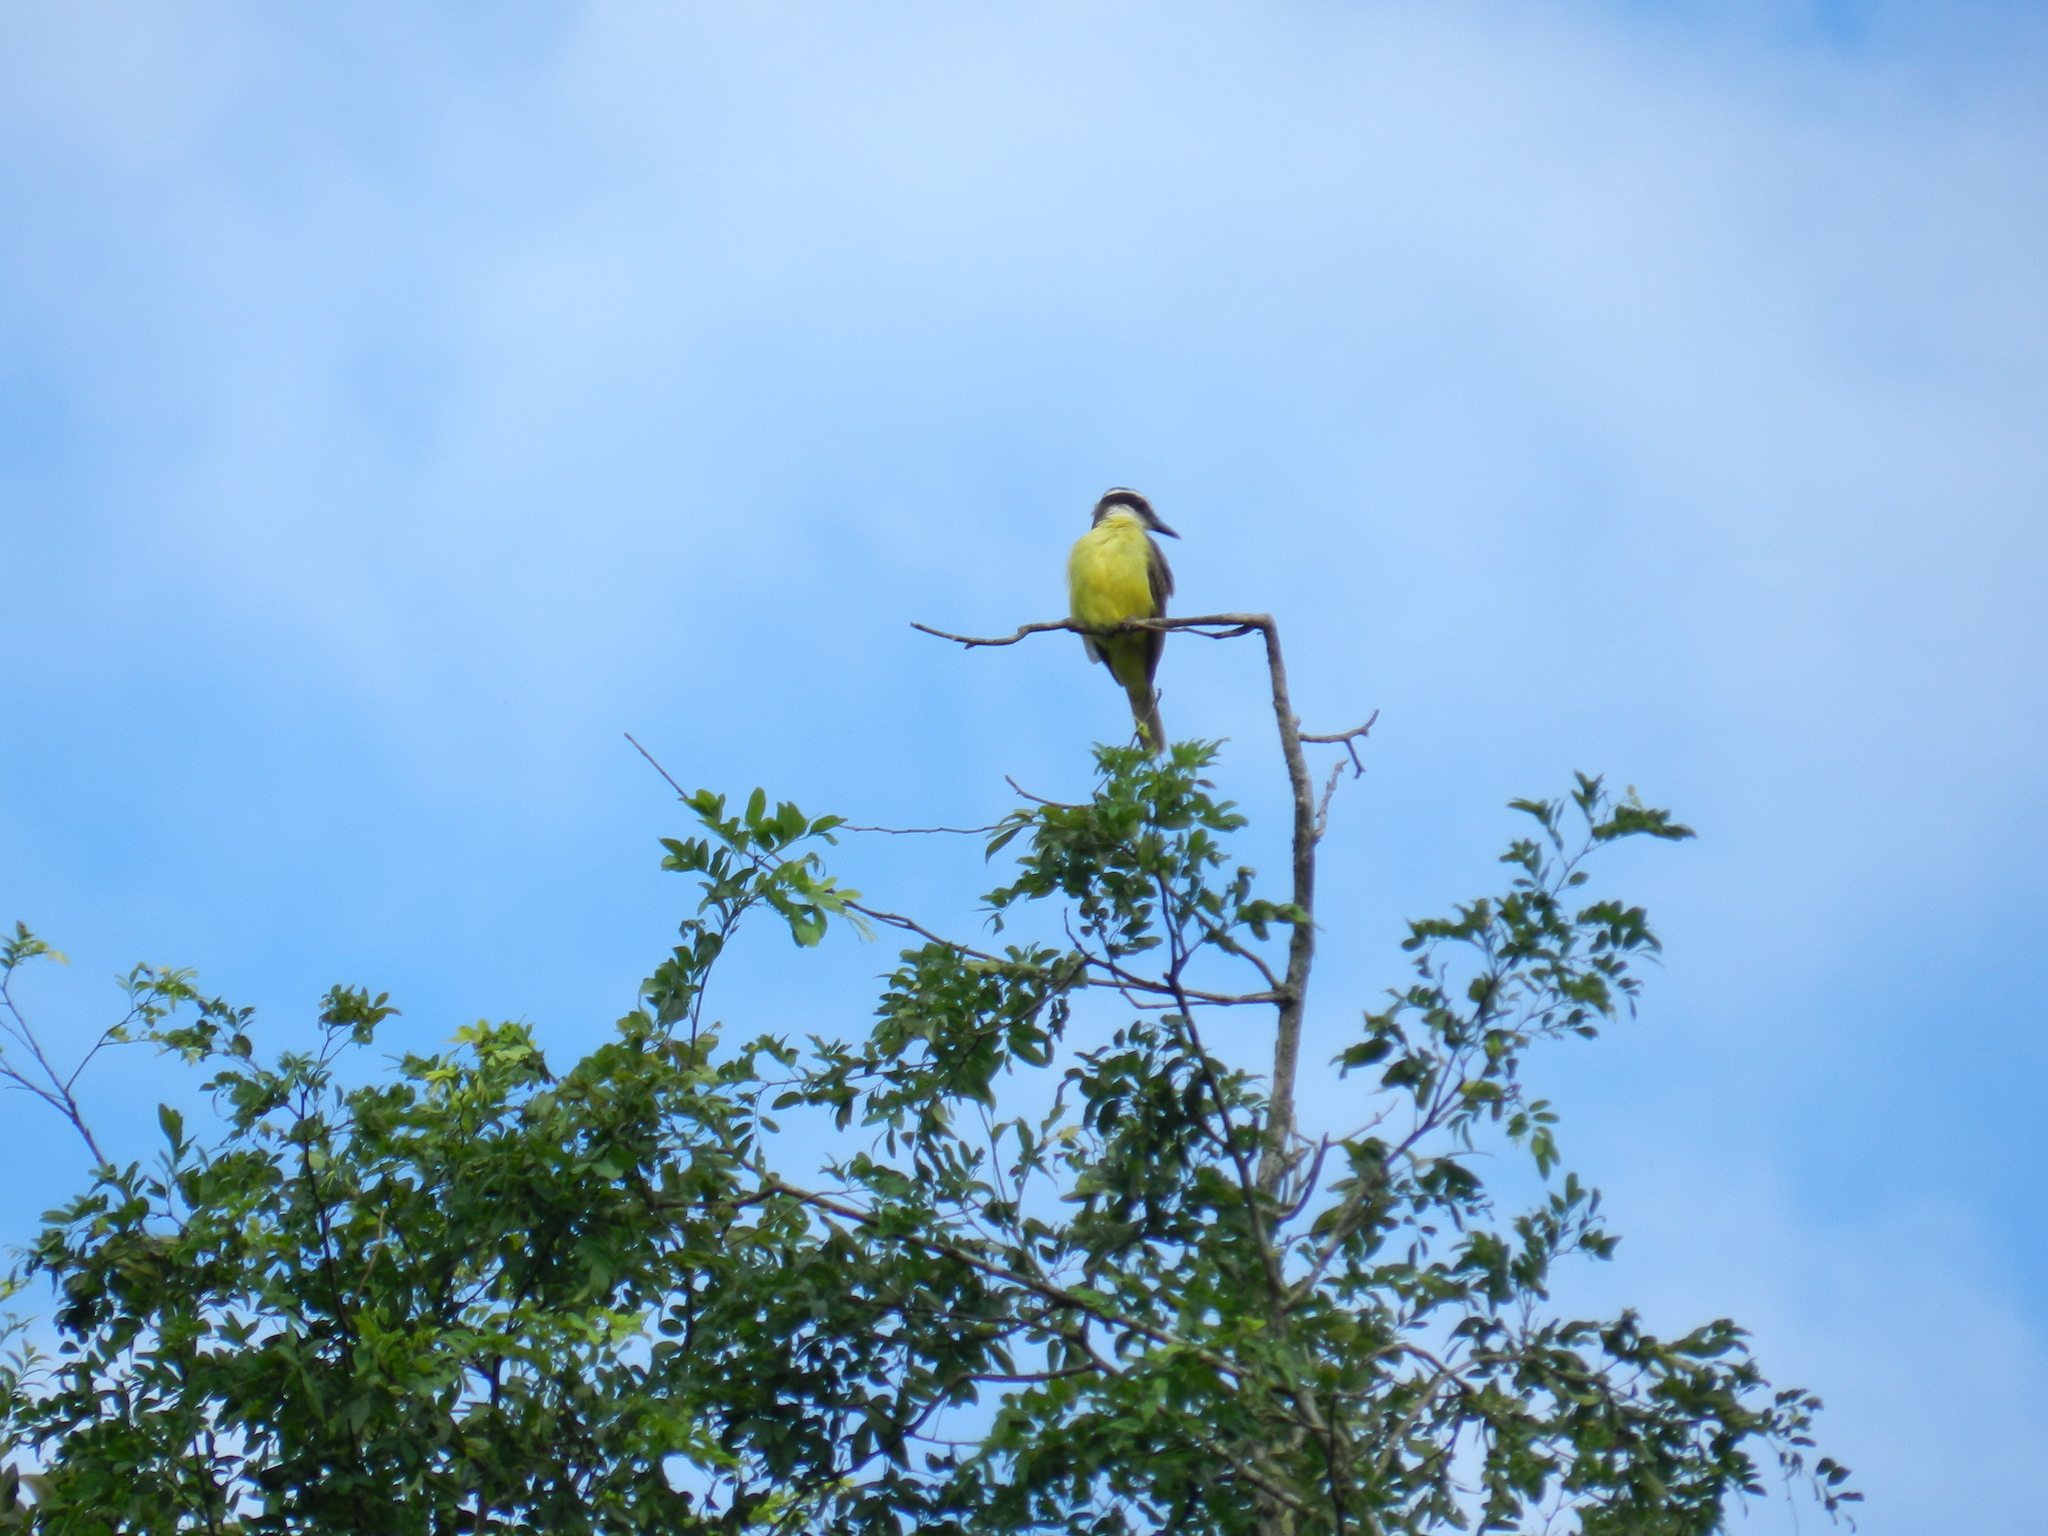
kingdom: Animalia
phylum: Chordata
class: Aves
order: Passeriformes
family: Tyrannidae
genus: Pitangus
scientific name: Pitangus sulphuratus
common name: Great kiskadee
